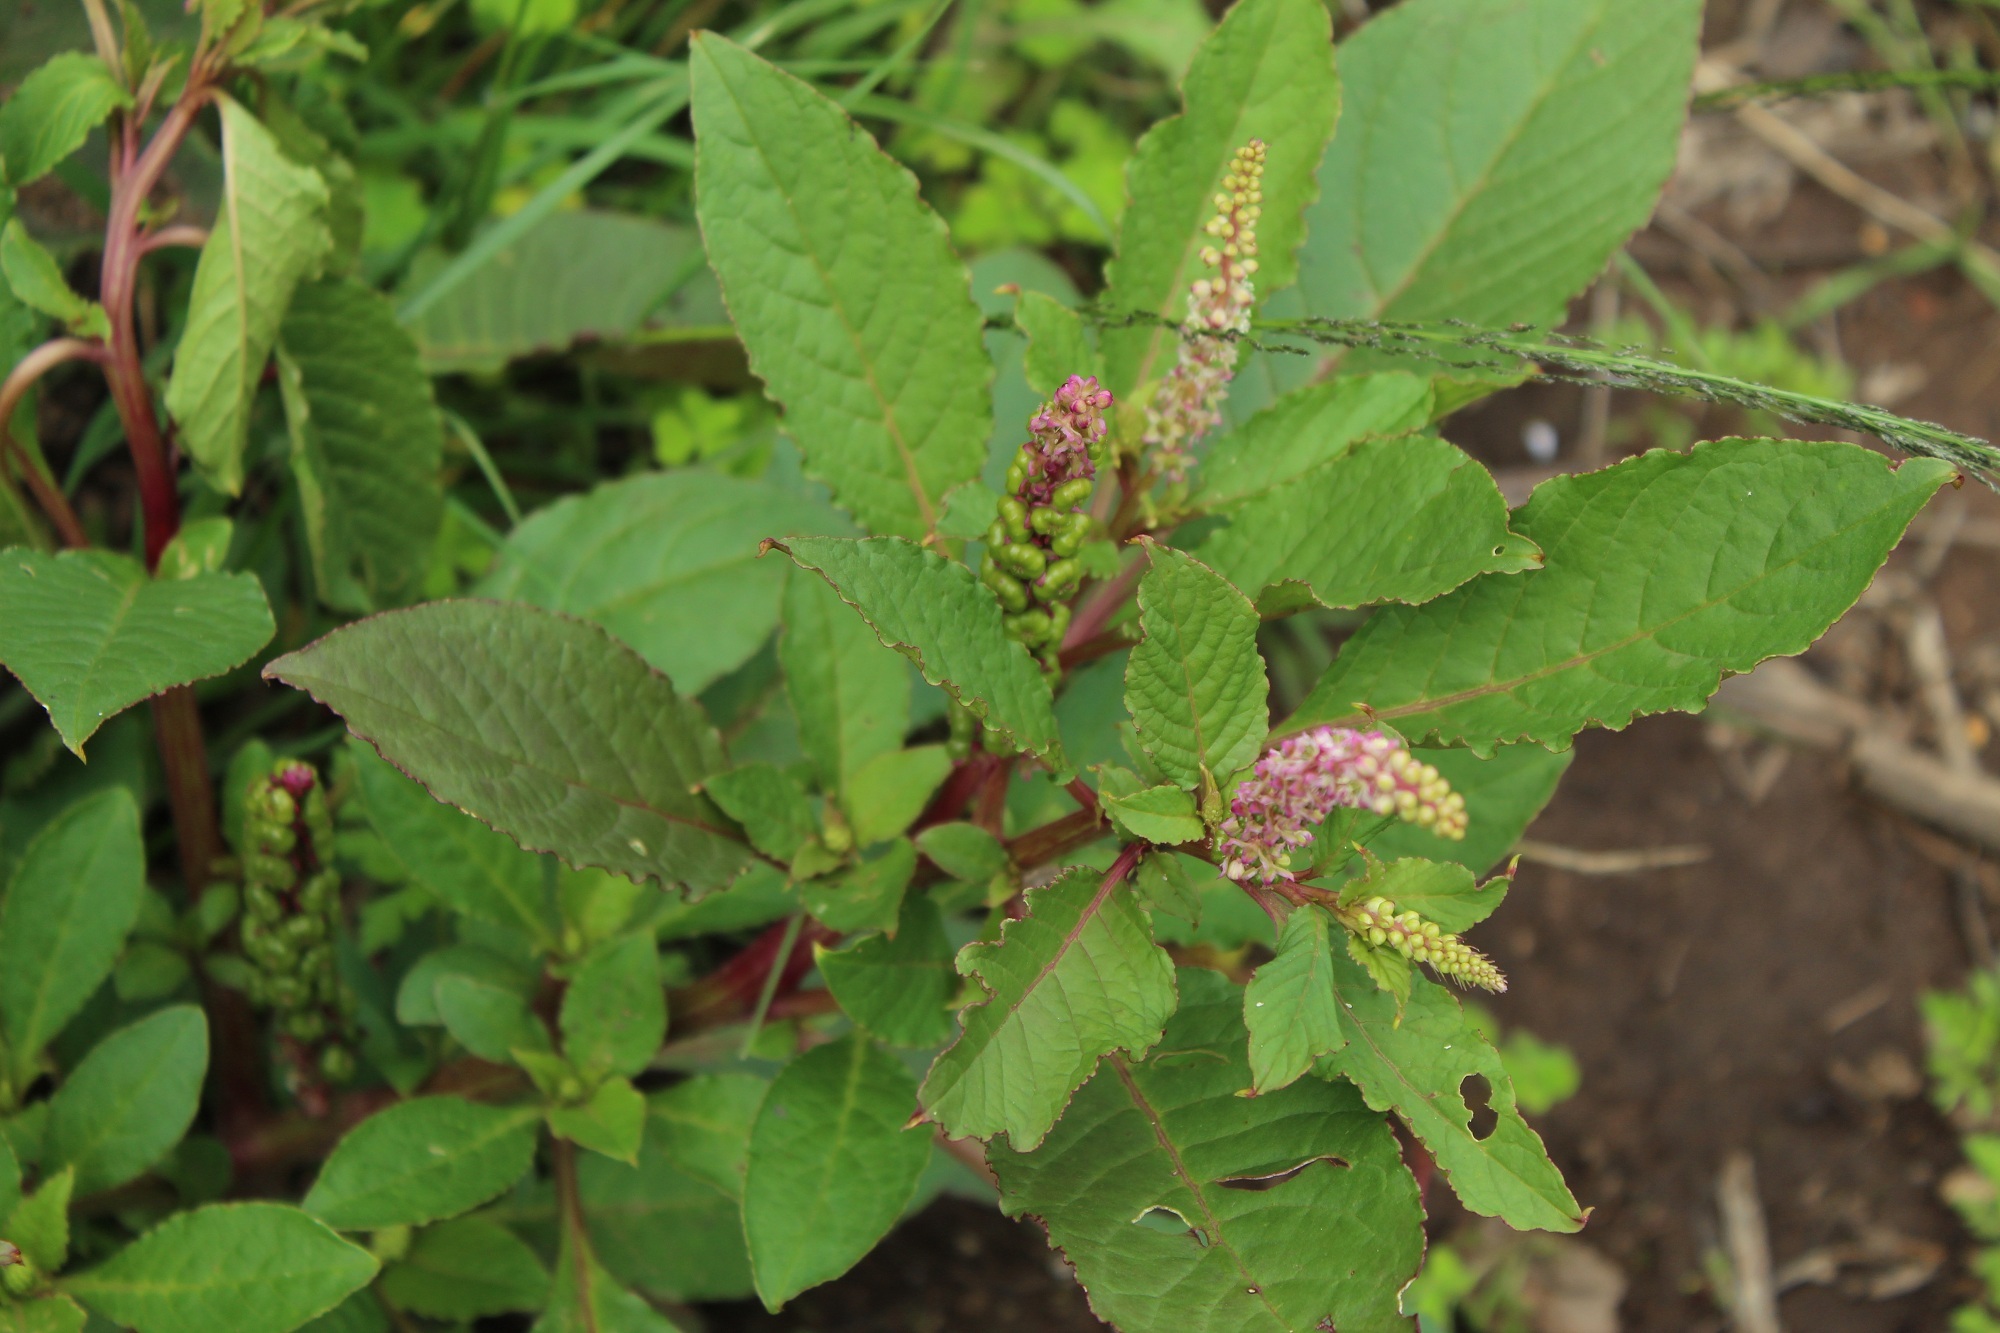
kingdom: Plantae
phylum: Tracheophyta
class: Magnoliopsida
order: Caryophyllales
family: Phytolaccaceae
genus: Phytolacca
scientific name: Phytolacca icosandra
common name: Button pokeweed
